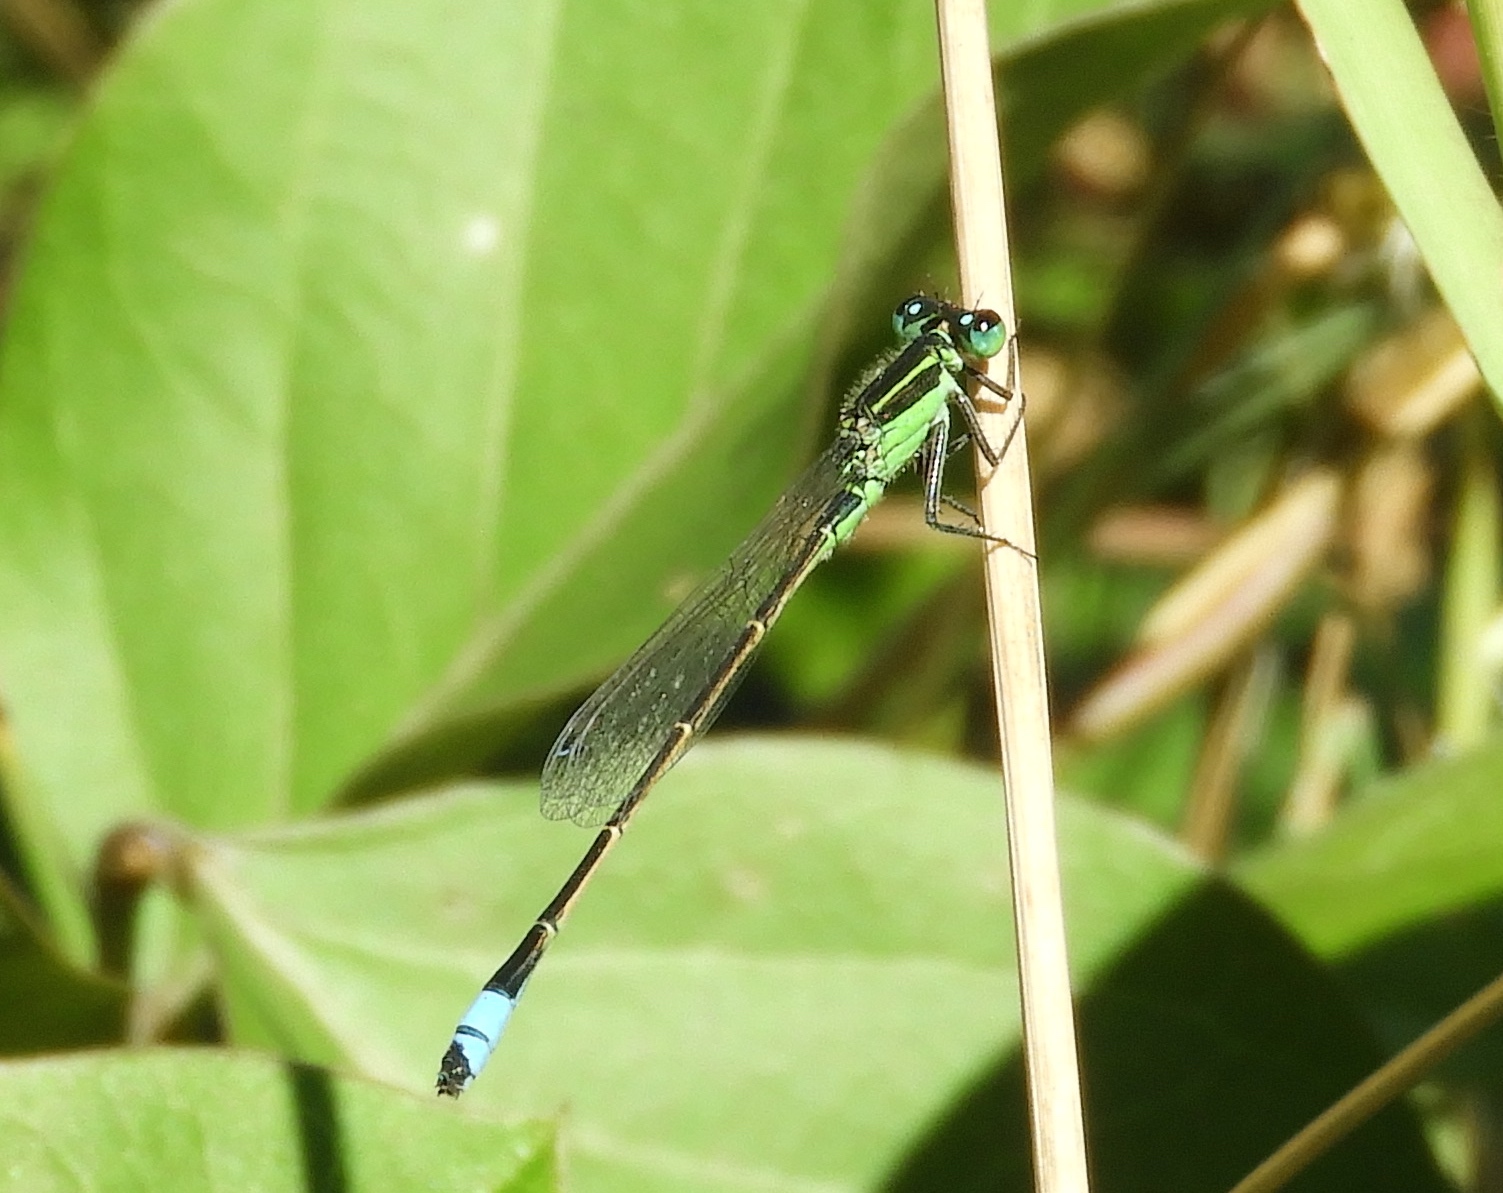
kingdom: Animalia
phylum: Arthropoda
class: Insecta
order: Odonata
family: Coenagrionidae
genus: Ischnura
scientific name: Ischnura ramburii
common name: Rambur's forktail
